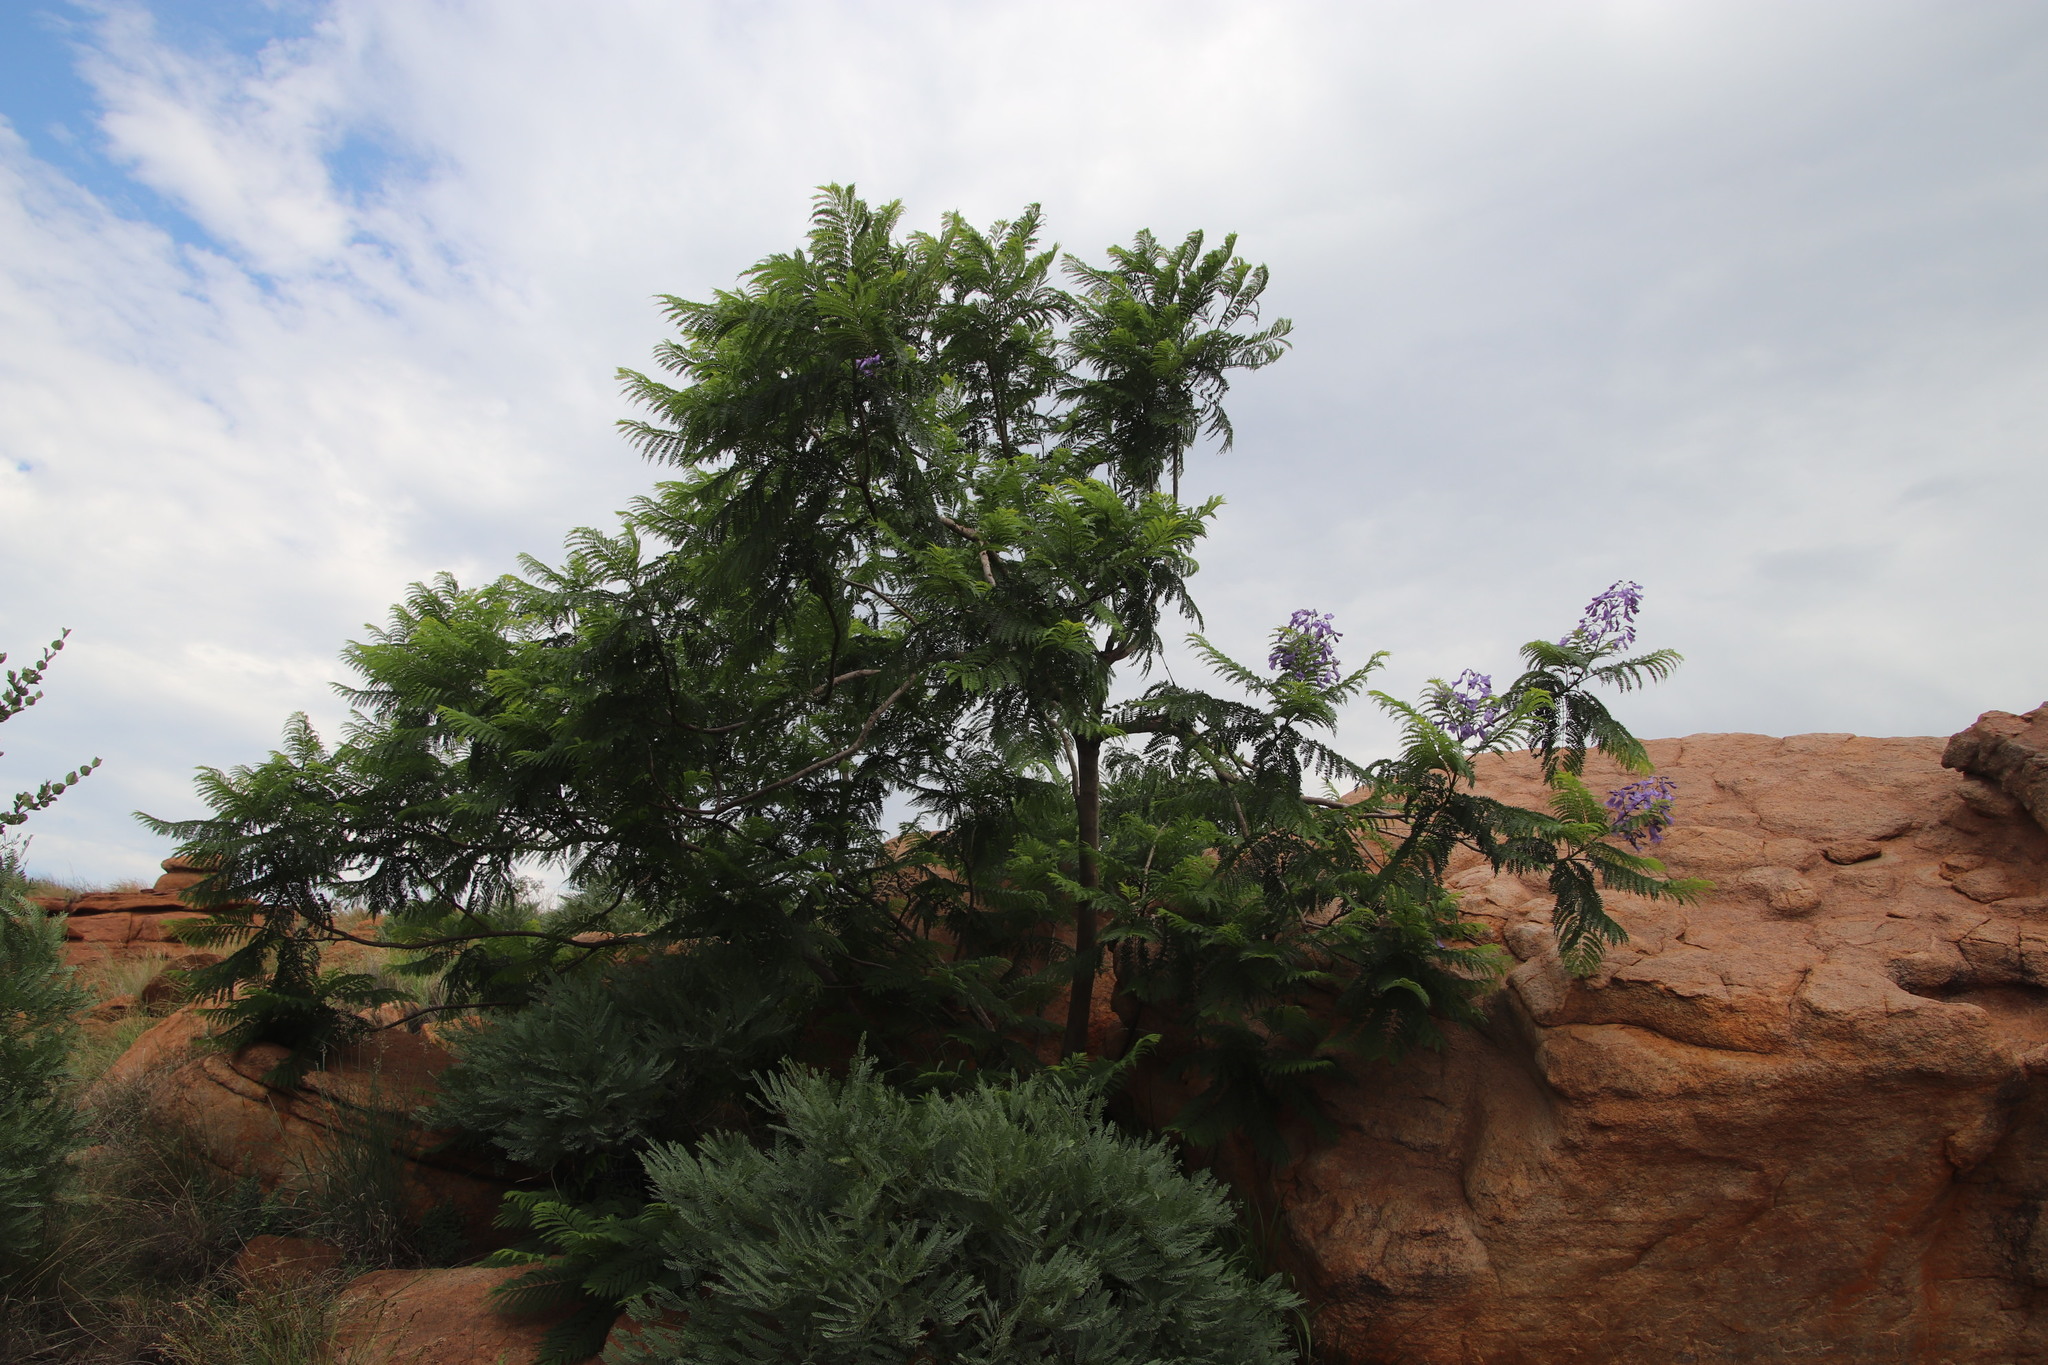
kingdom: Plantae
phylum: Tracheophyta
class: Magnoliopsida
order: Lamiales
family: Bignoniaceae
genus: Jacaranda
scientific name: Jacaranda mimosifolia
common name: Black poui
